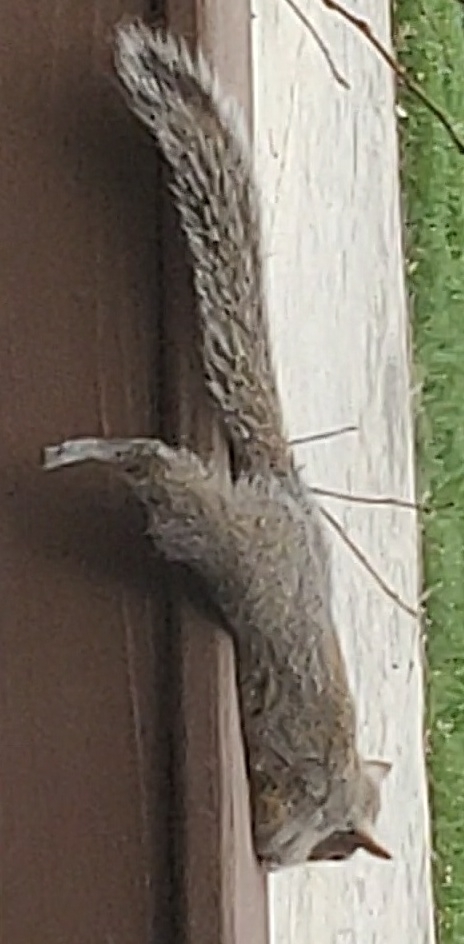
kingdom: Animalia
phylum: Chordata
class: Mammalia
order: Rodentia
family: Sciuridae
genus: Sciurus
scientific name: Sciurus carolinensis
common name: Eastern gray squirrel
